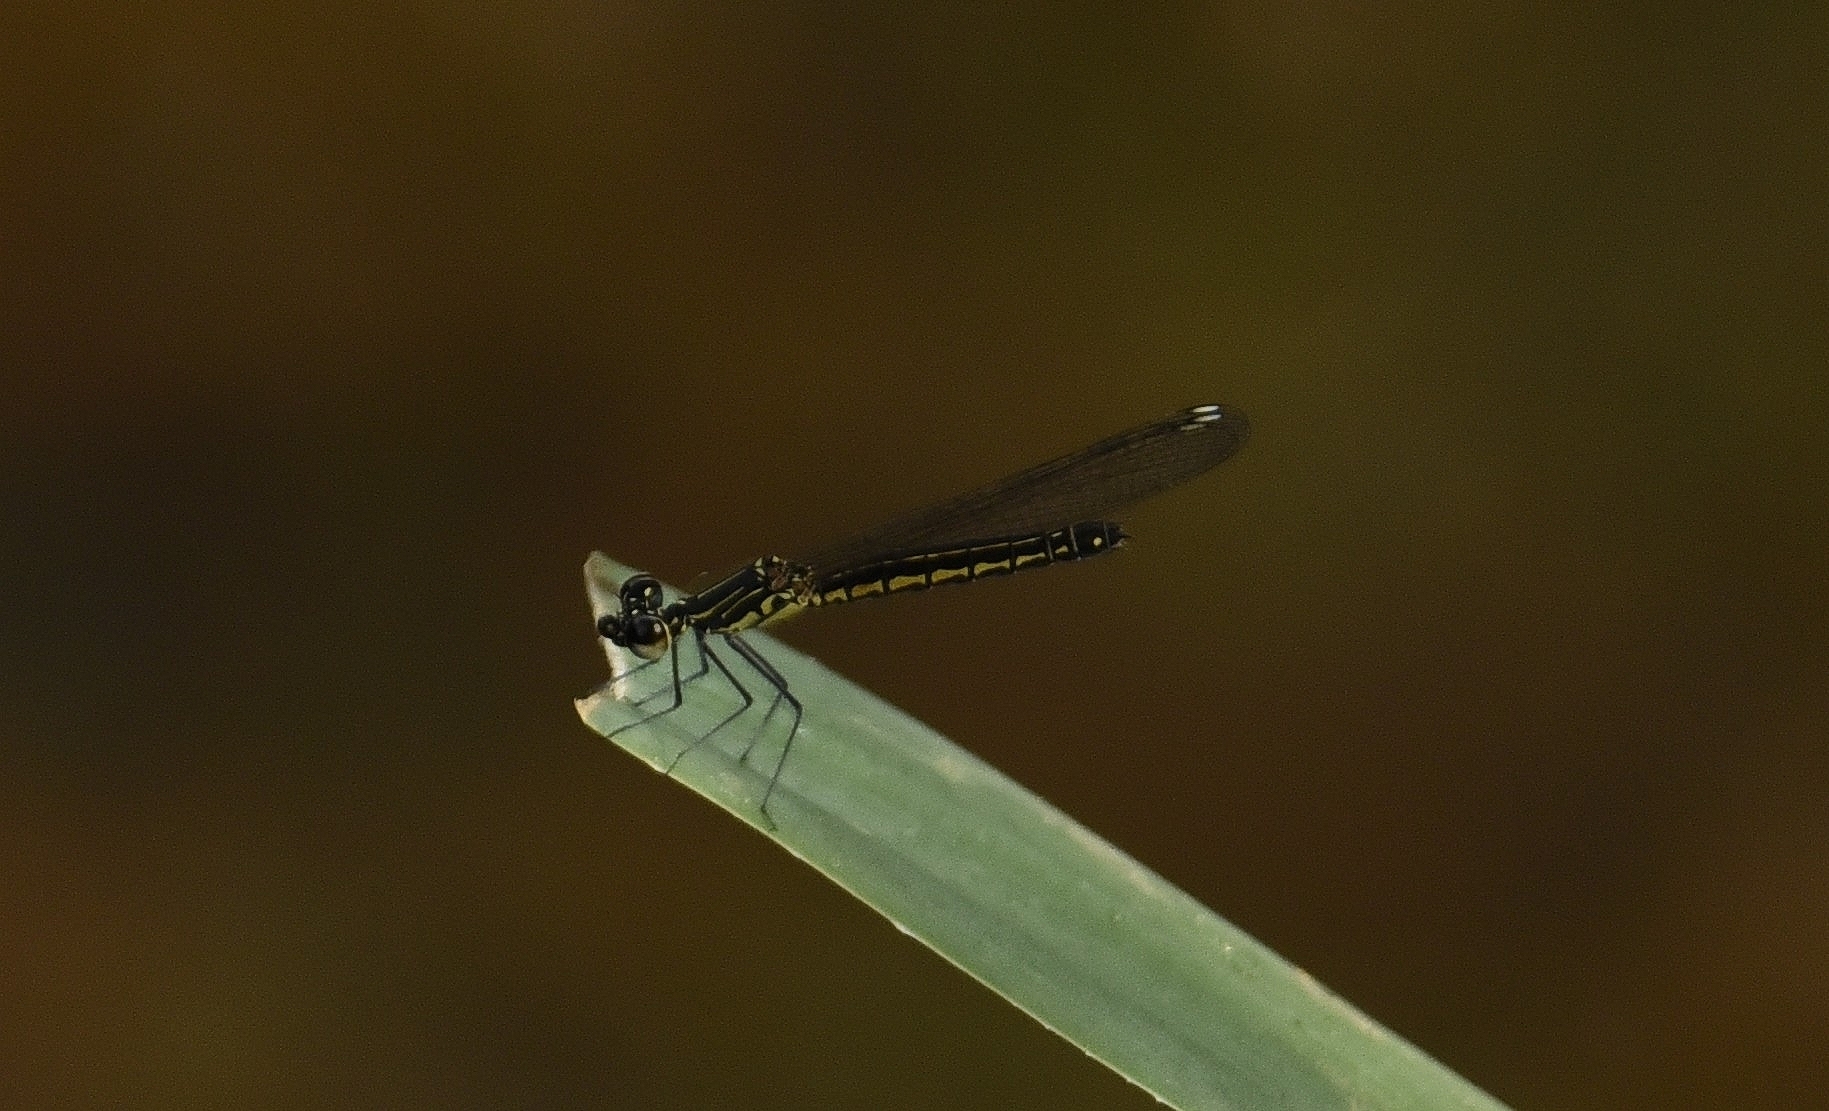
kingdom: Animalia
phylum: Arthropoda
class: Insecta
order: Odonata
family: Chlorocyphidae
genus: Libellago
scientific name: Libellago indica
